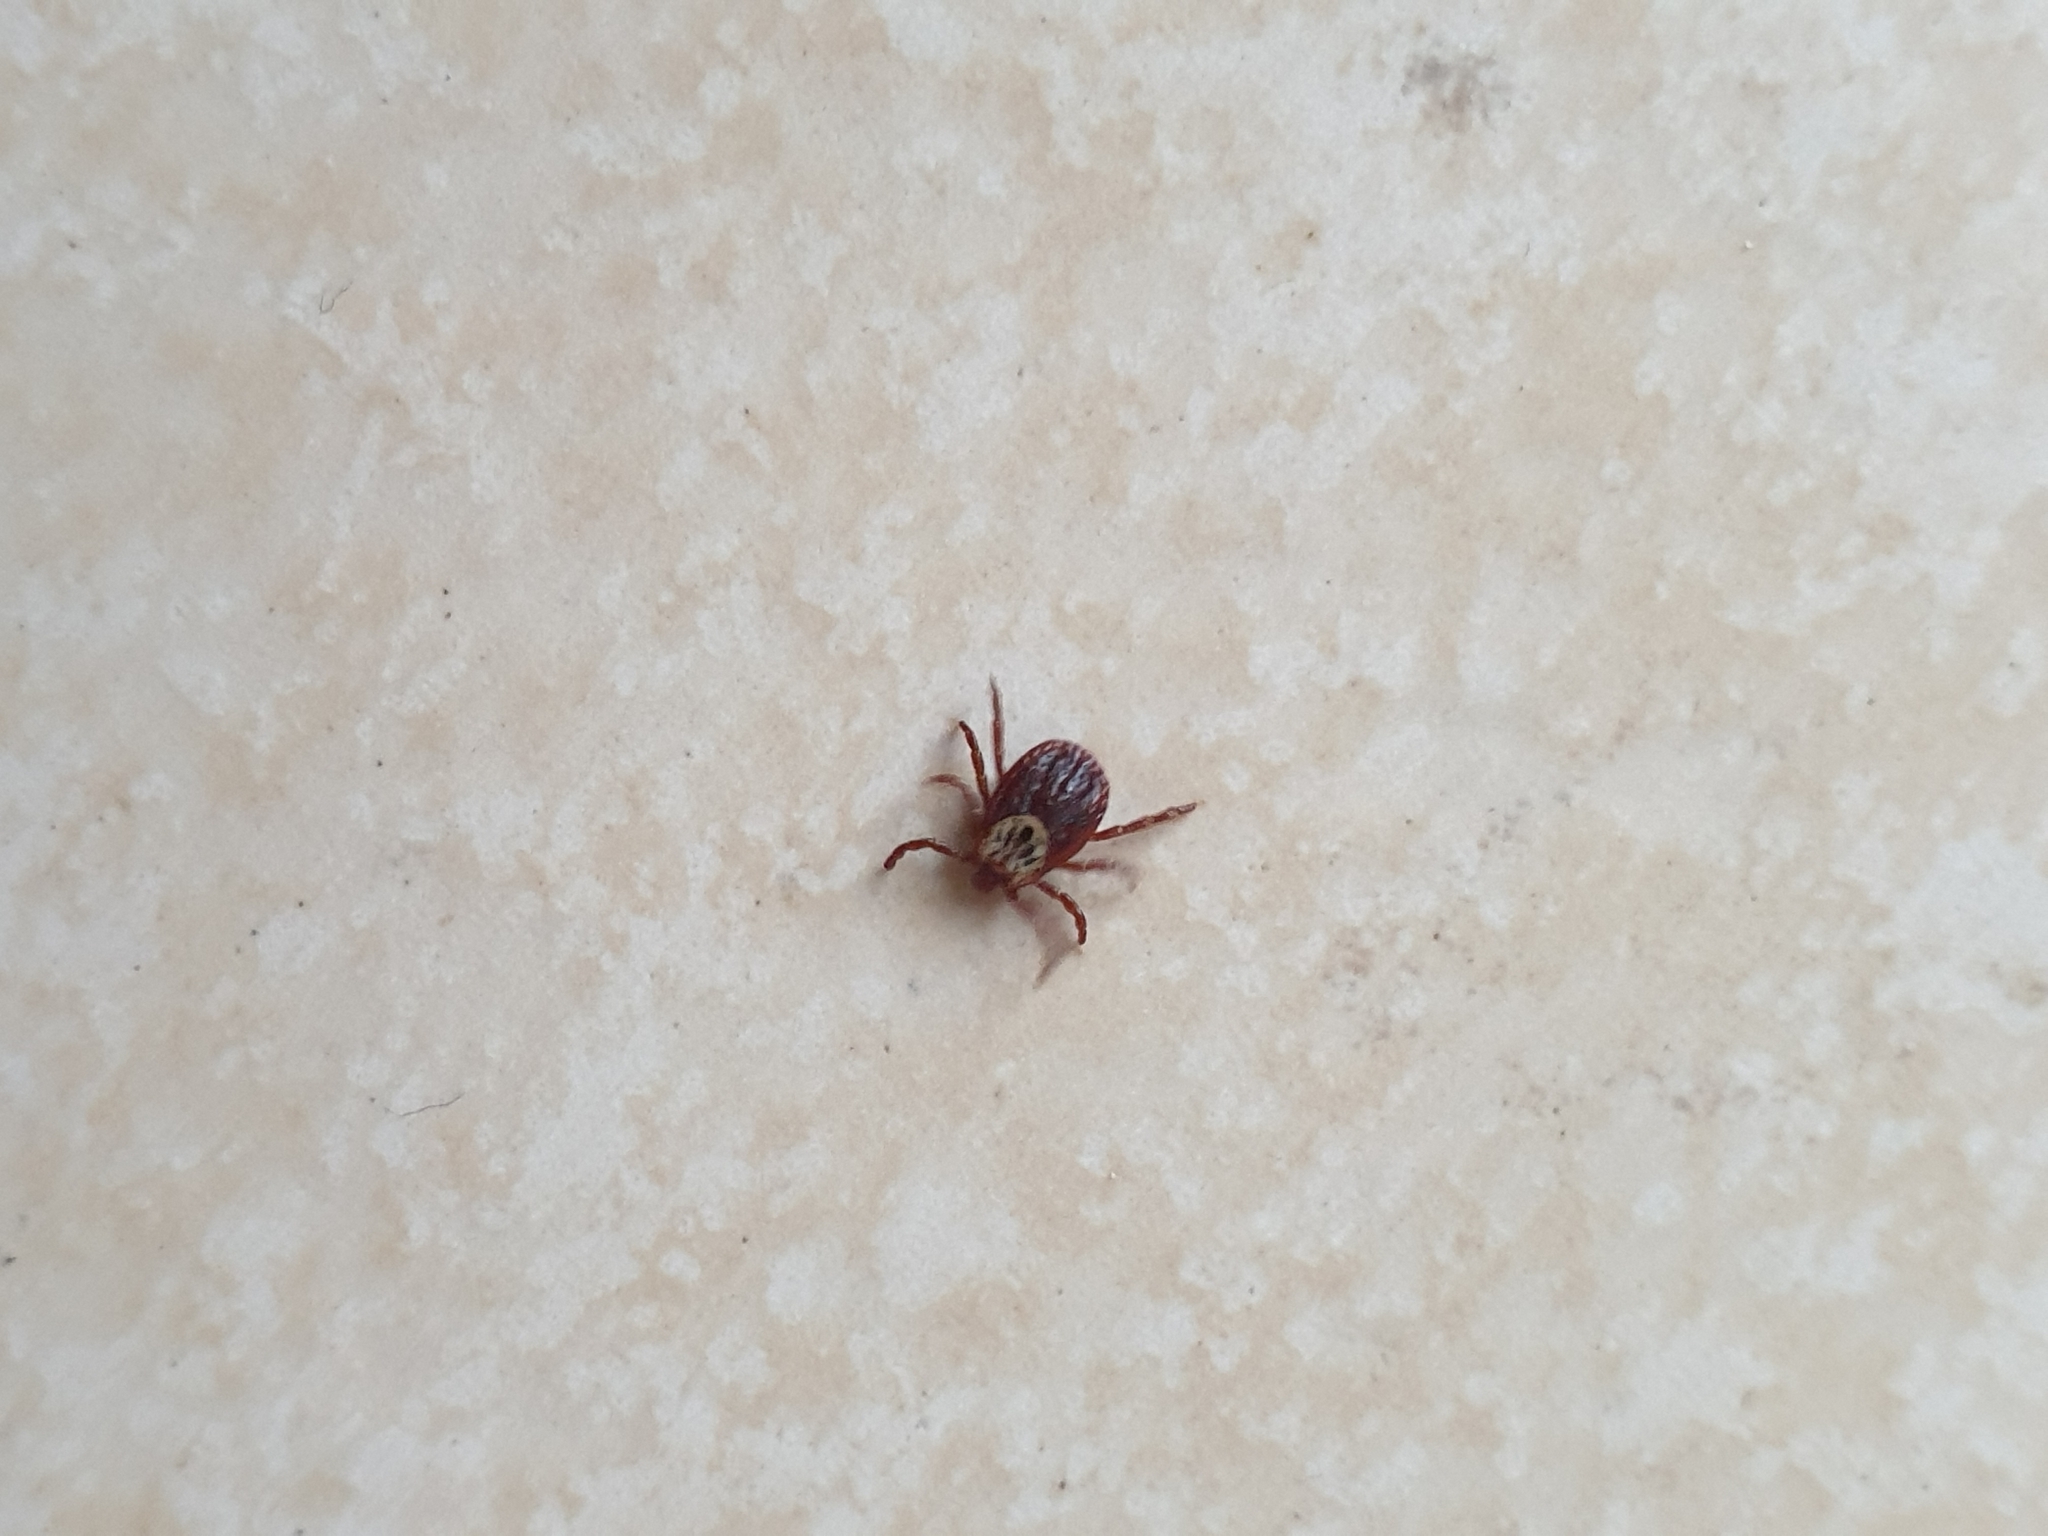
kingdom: Animalia
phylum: Arthropoda
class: Arachnida
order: Ixodida
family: Ixodidae
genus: Dermacentor
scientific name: Dermacentor reticulatus
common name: Ornate cow tick
